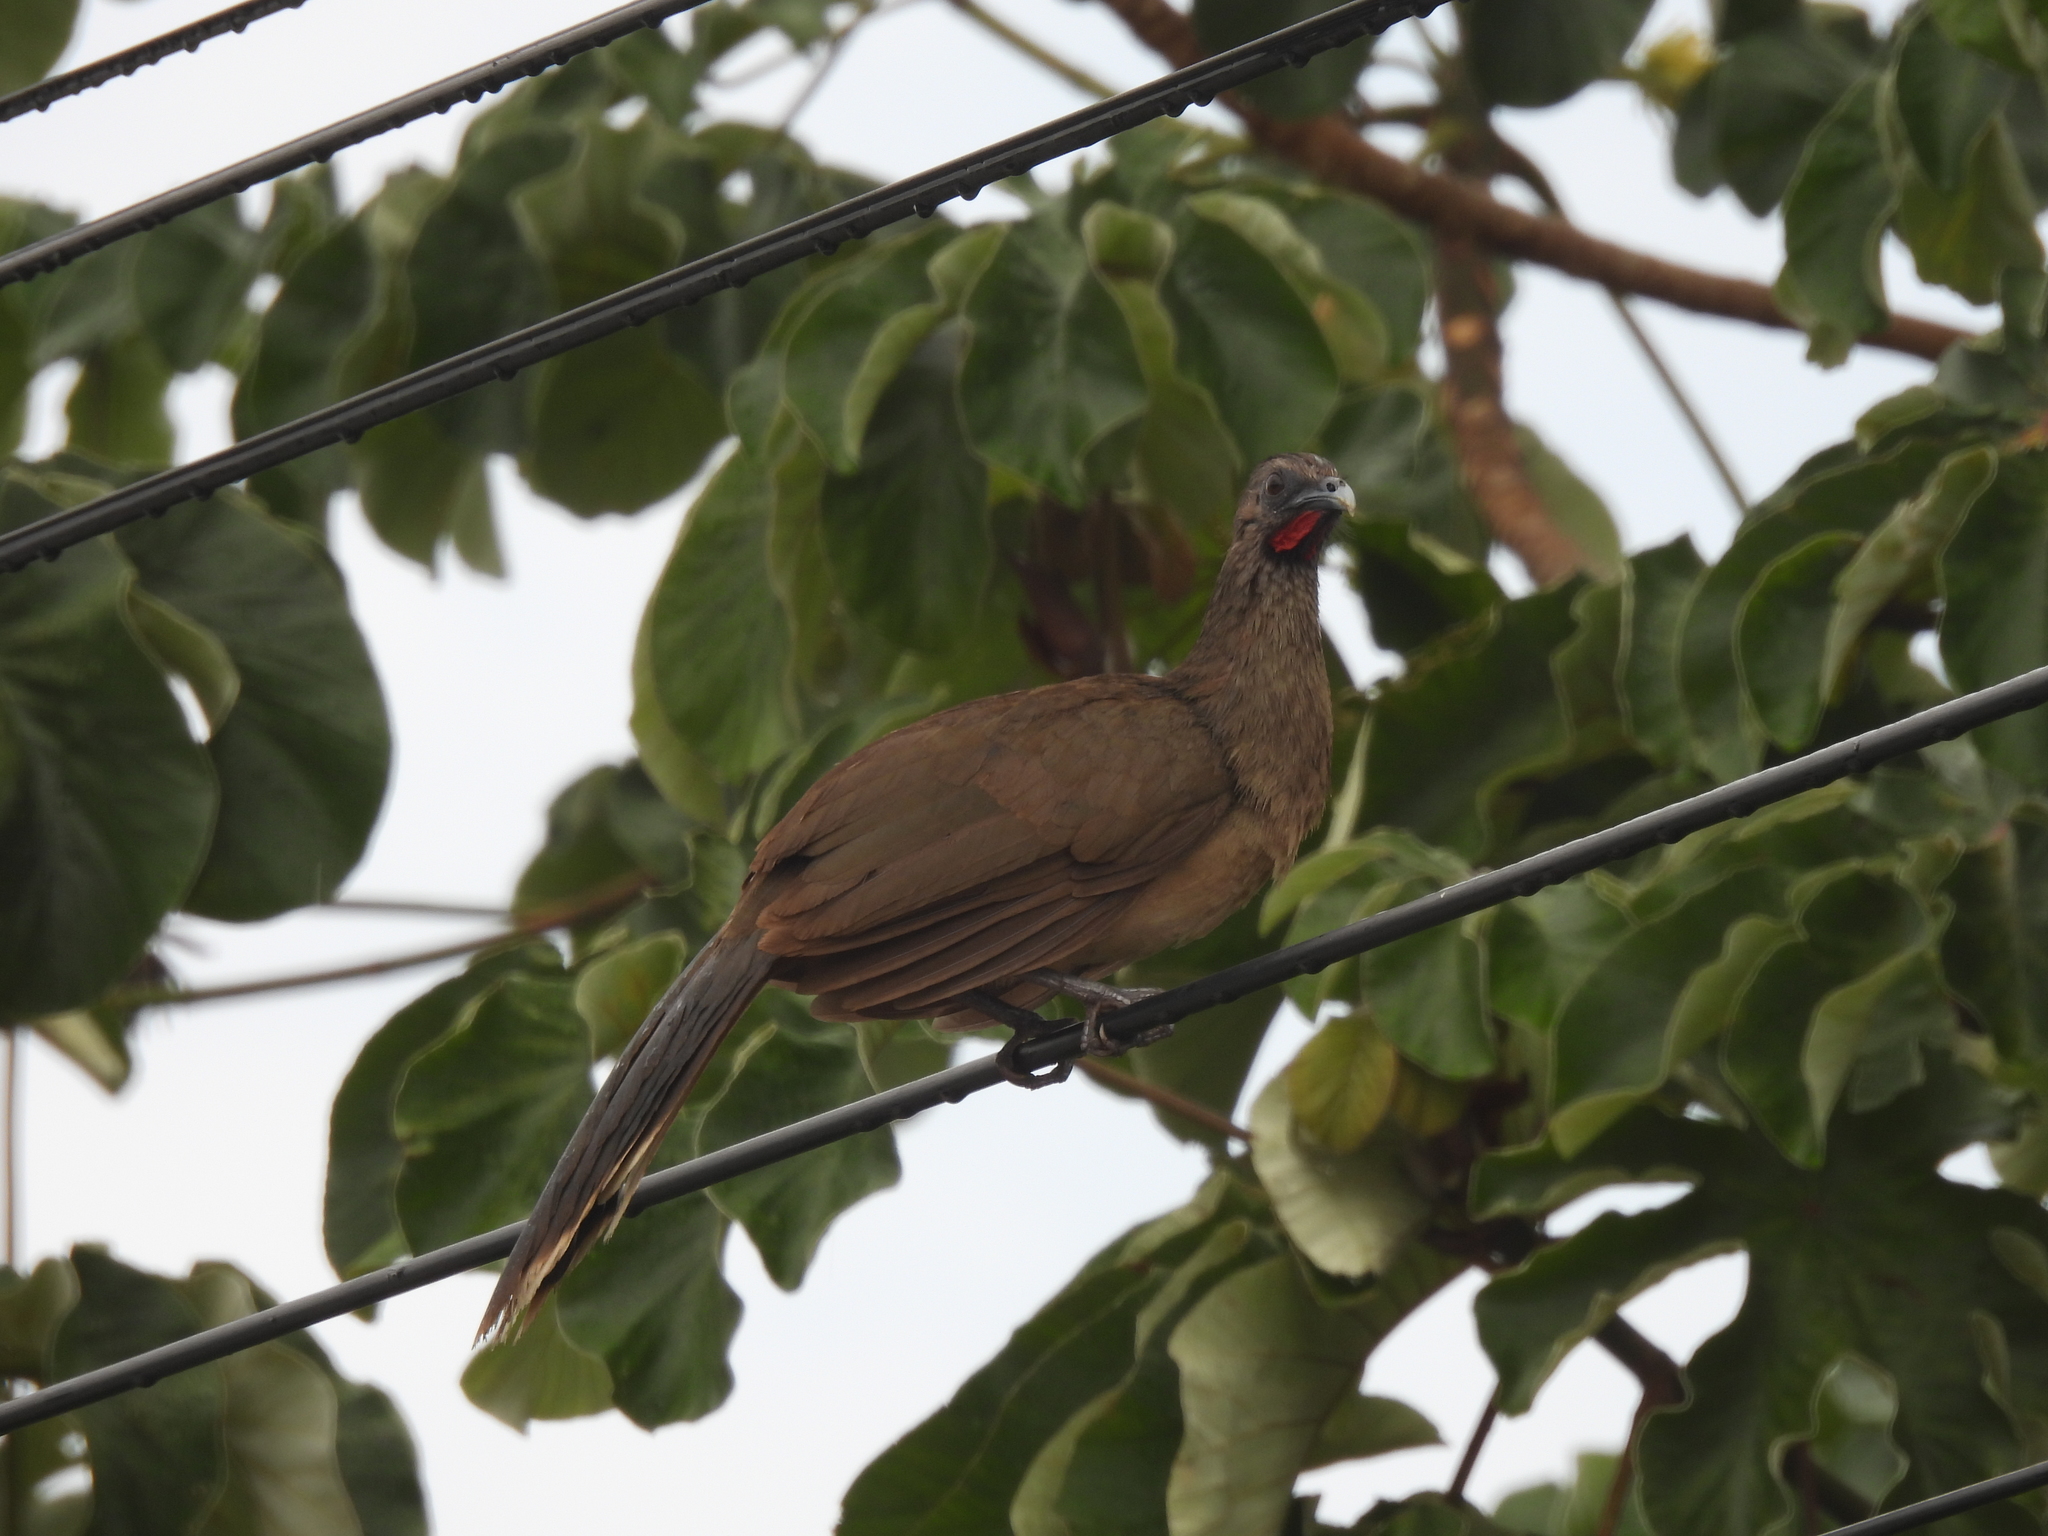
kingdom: Animalia
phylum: Chordata
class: Aves
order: Galliformes
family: Cracidae
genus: Ortalis
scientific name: Ortalis vetula
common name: Plain chachalaca
